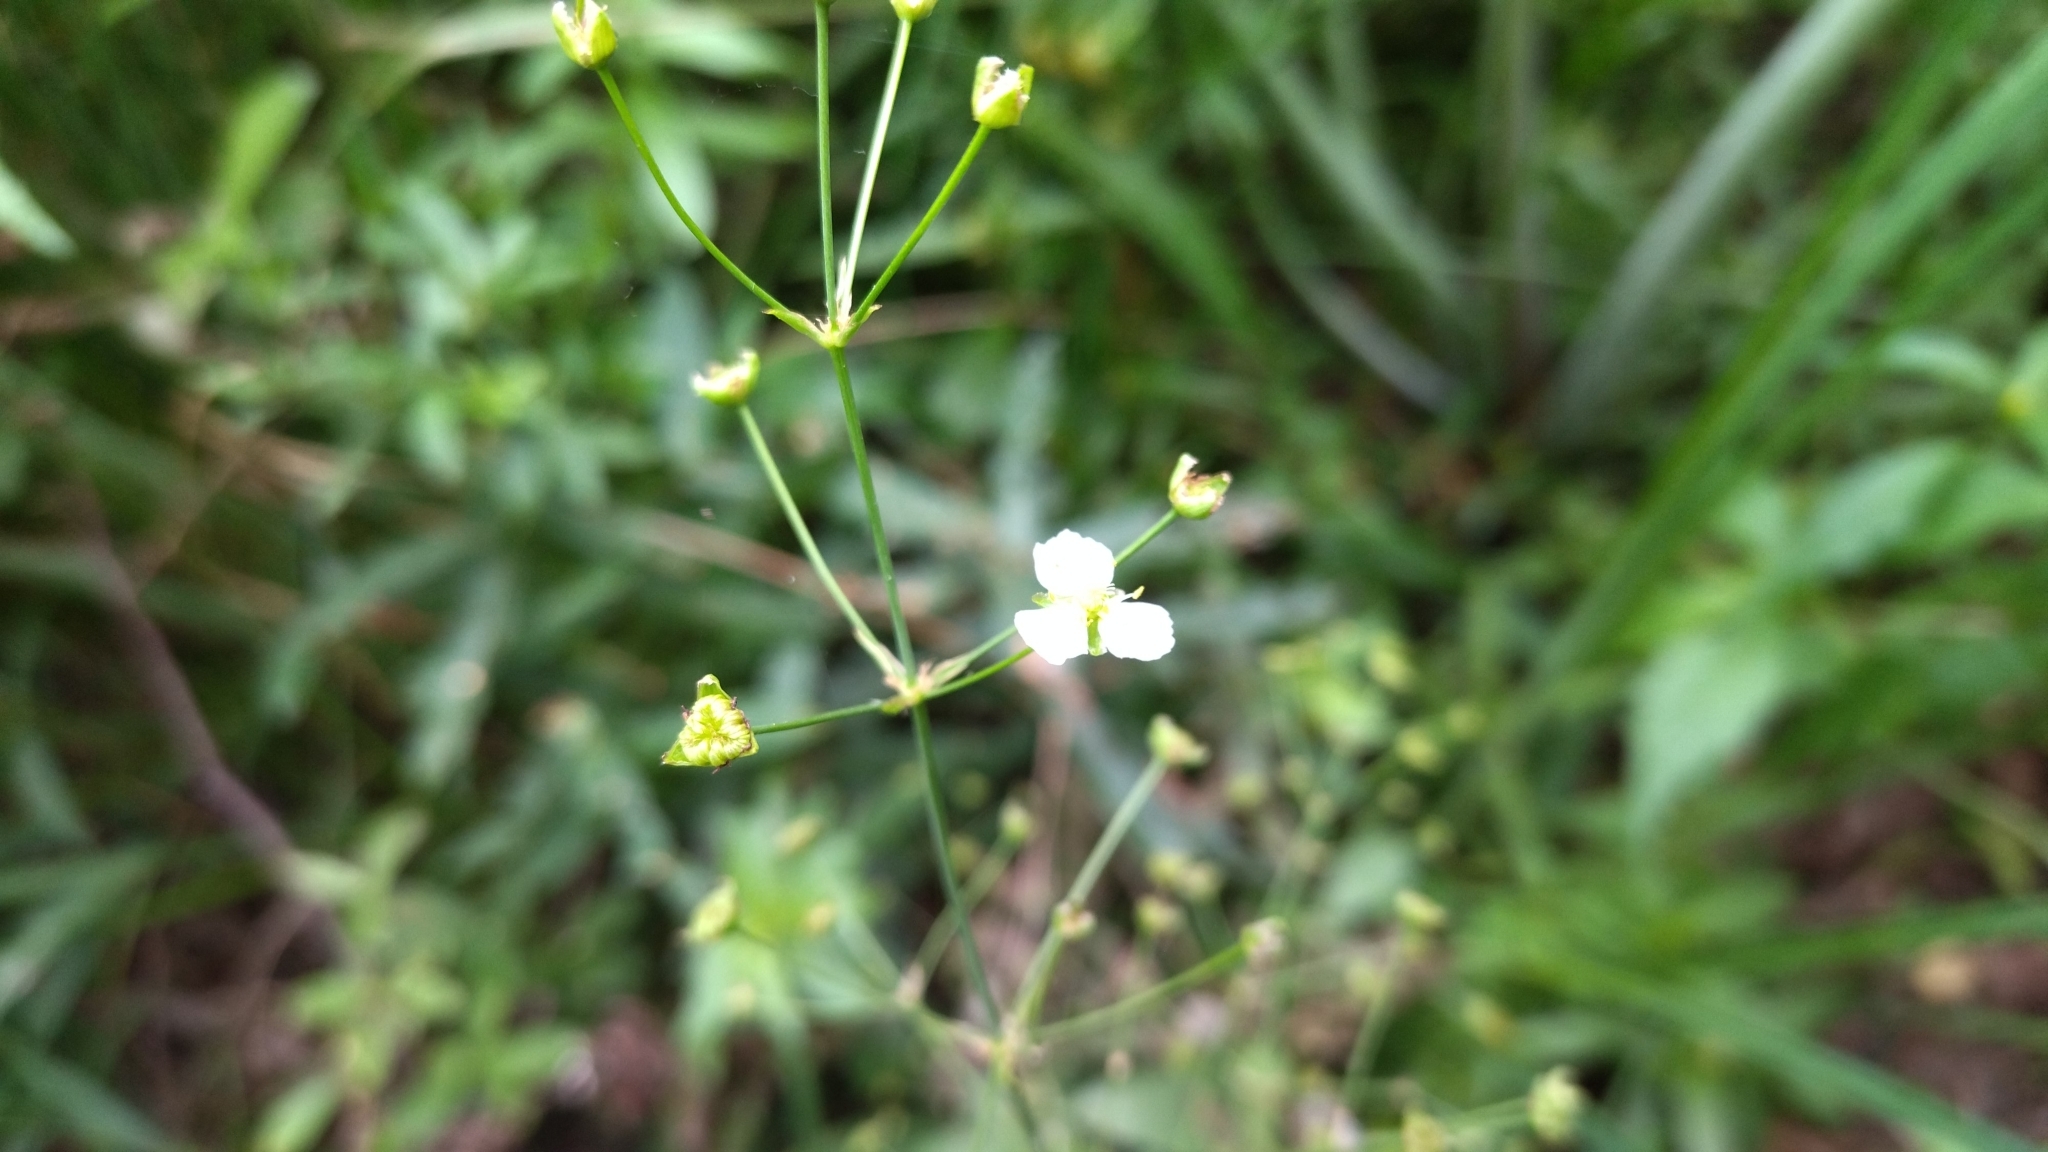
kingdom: Plantae
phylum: Tracheophyta
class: Liliopsida
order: Alismatales
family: Alismataceae
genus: Alisma
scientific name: Alisma plantago-aquatica
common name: Water-plantain
